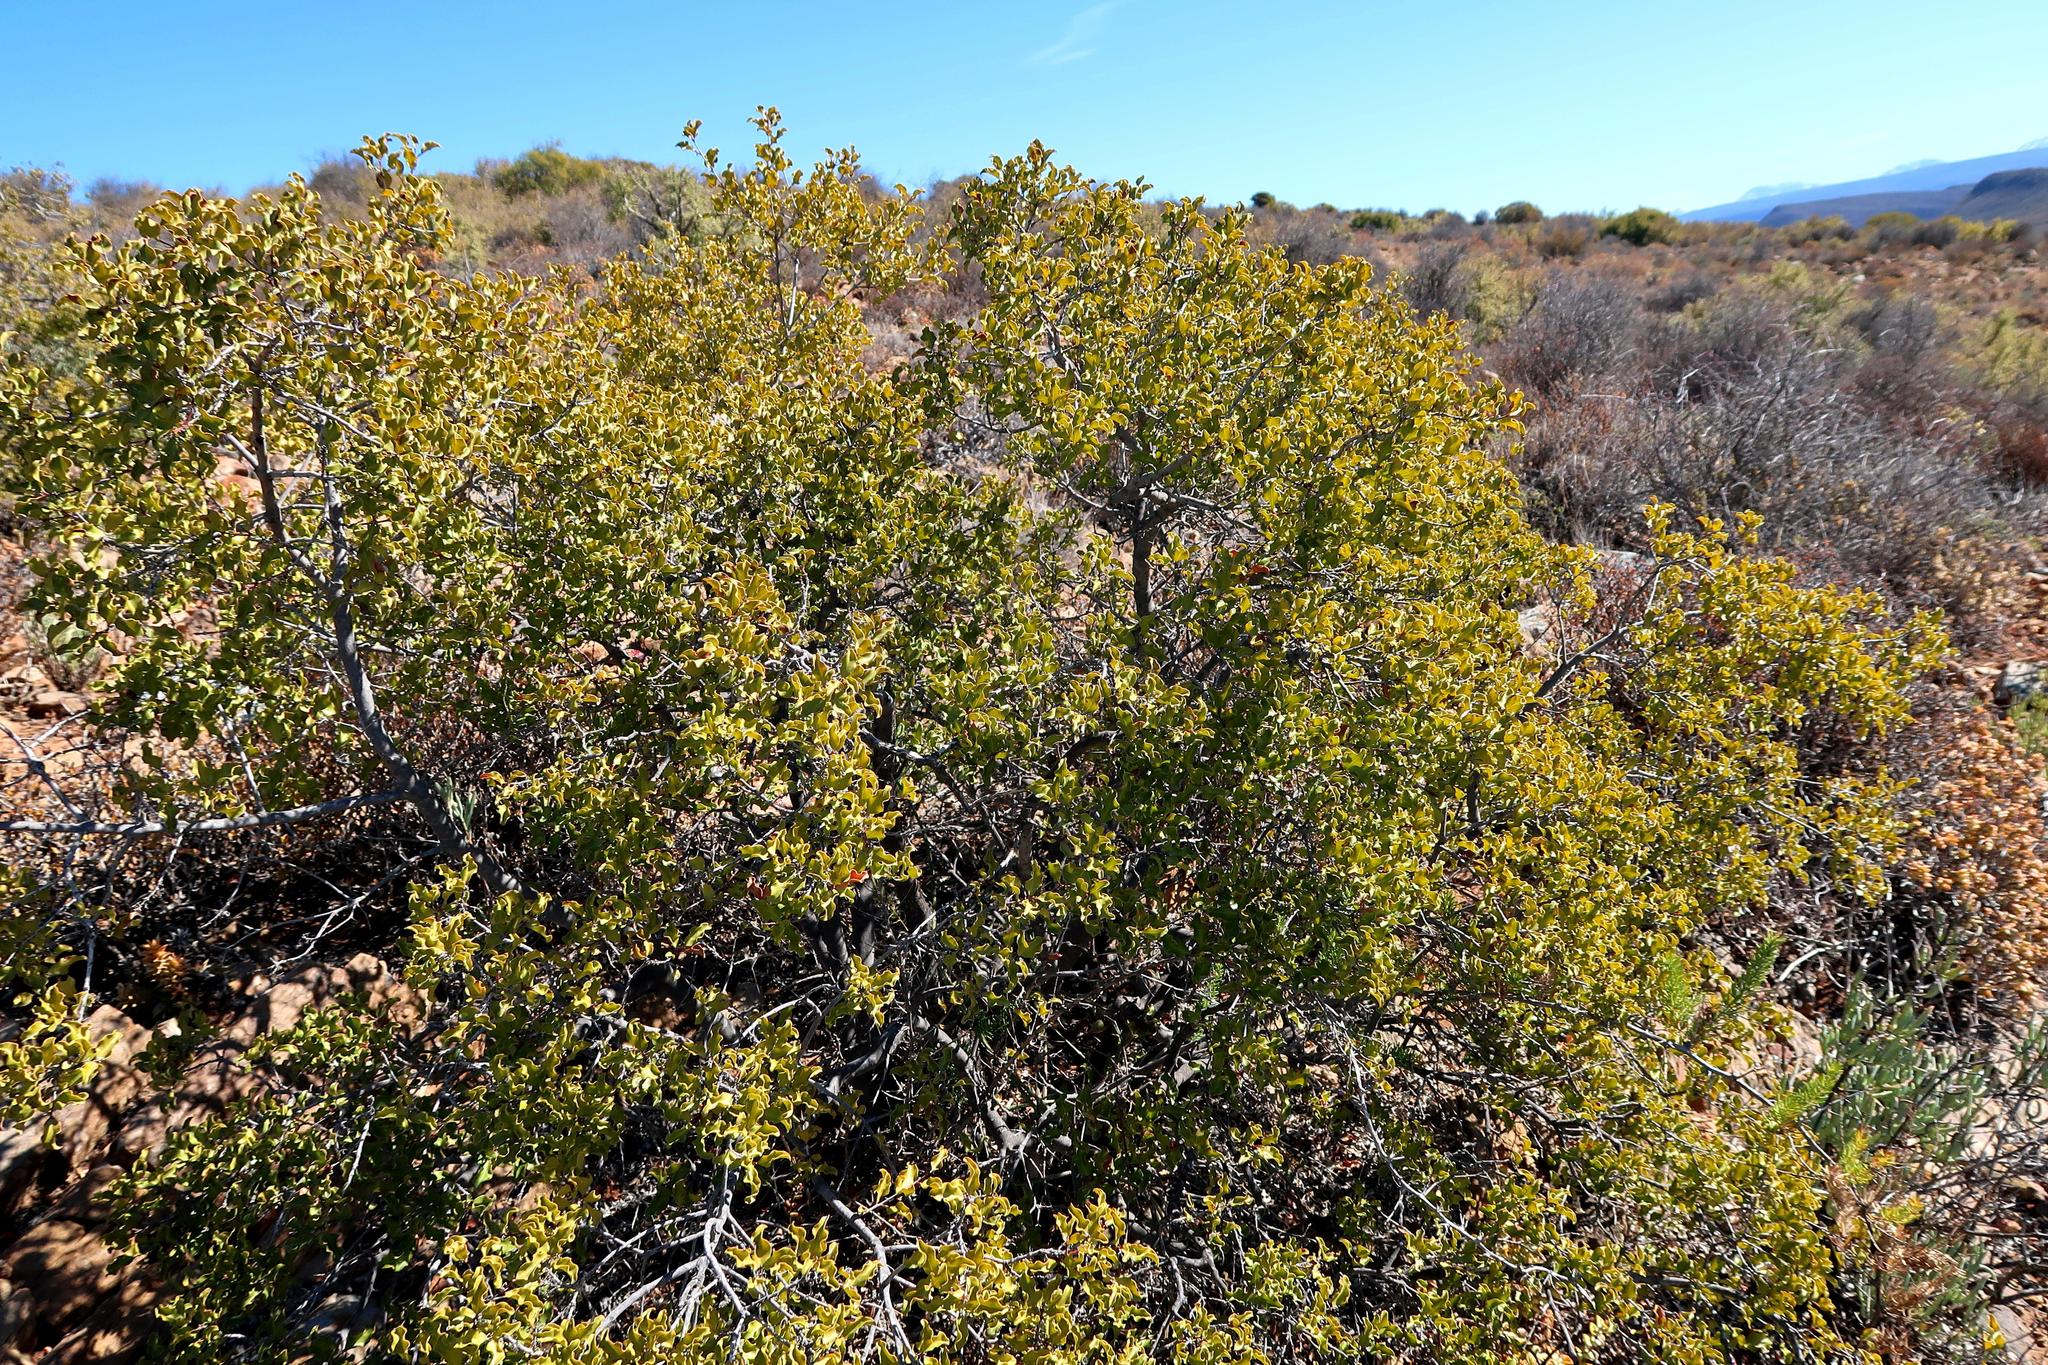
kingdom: Plantae
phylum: Tracheophyta
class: Magnoliopsida
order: Ericales
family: Ebenaceae
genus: Euclea
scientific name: Euclea undulata
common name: Small-leaved guarri
